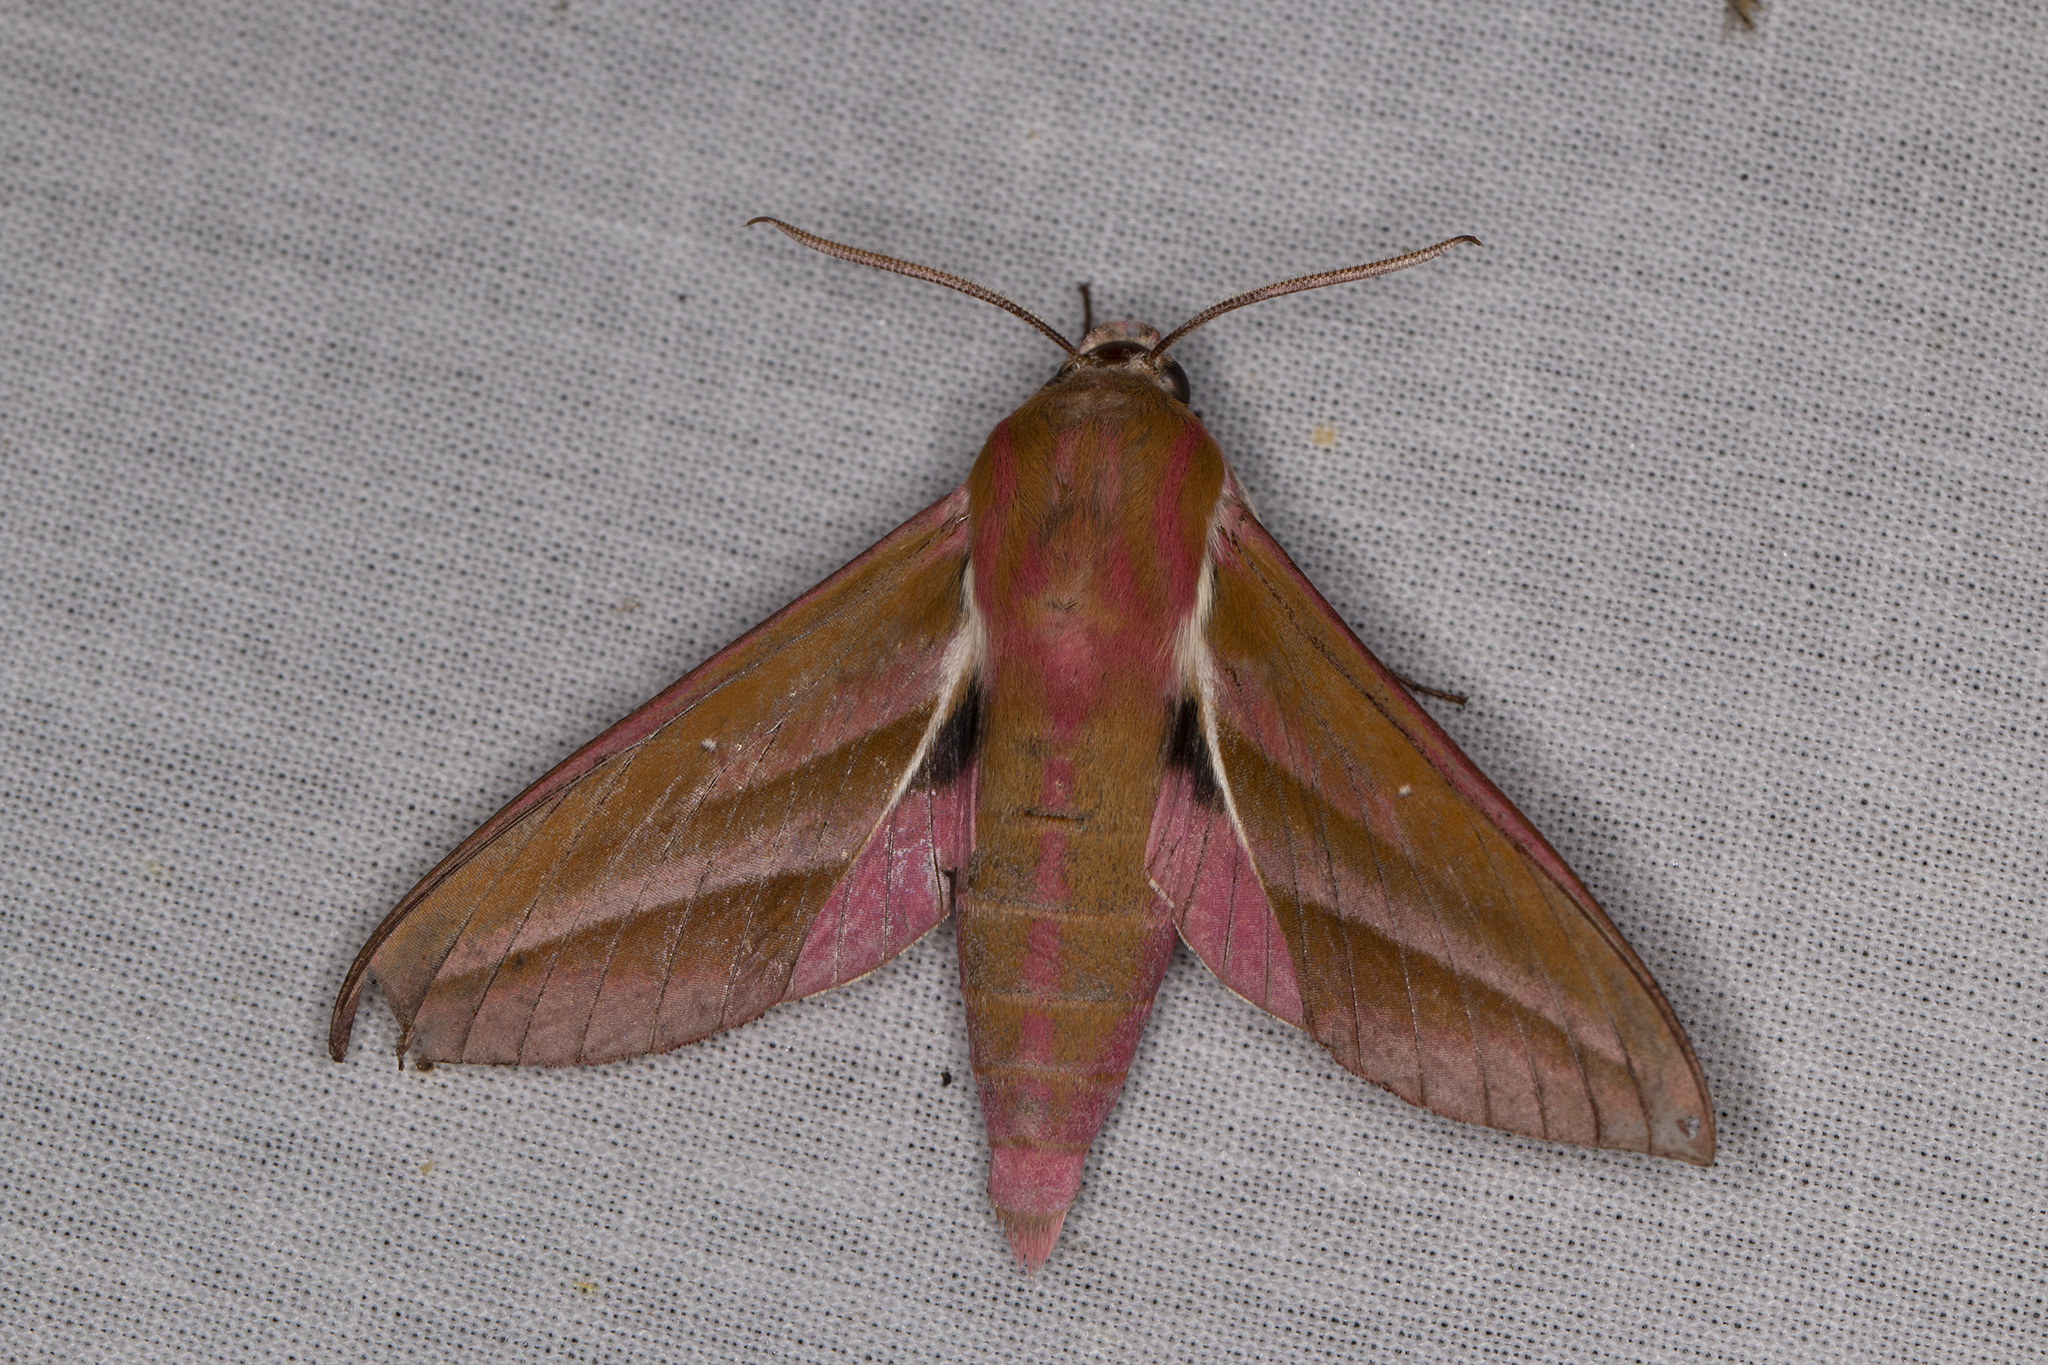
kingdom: Animalia
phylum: Arthropoda
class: Insecta
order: Lepidoptera
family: Sphingidae
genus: Deilephila
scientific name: Deilephila elpenor
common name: Elephant hawk-moth
